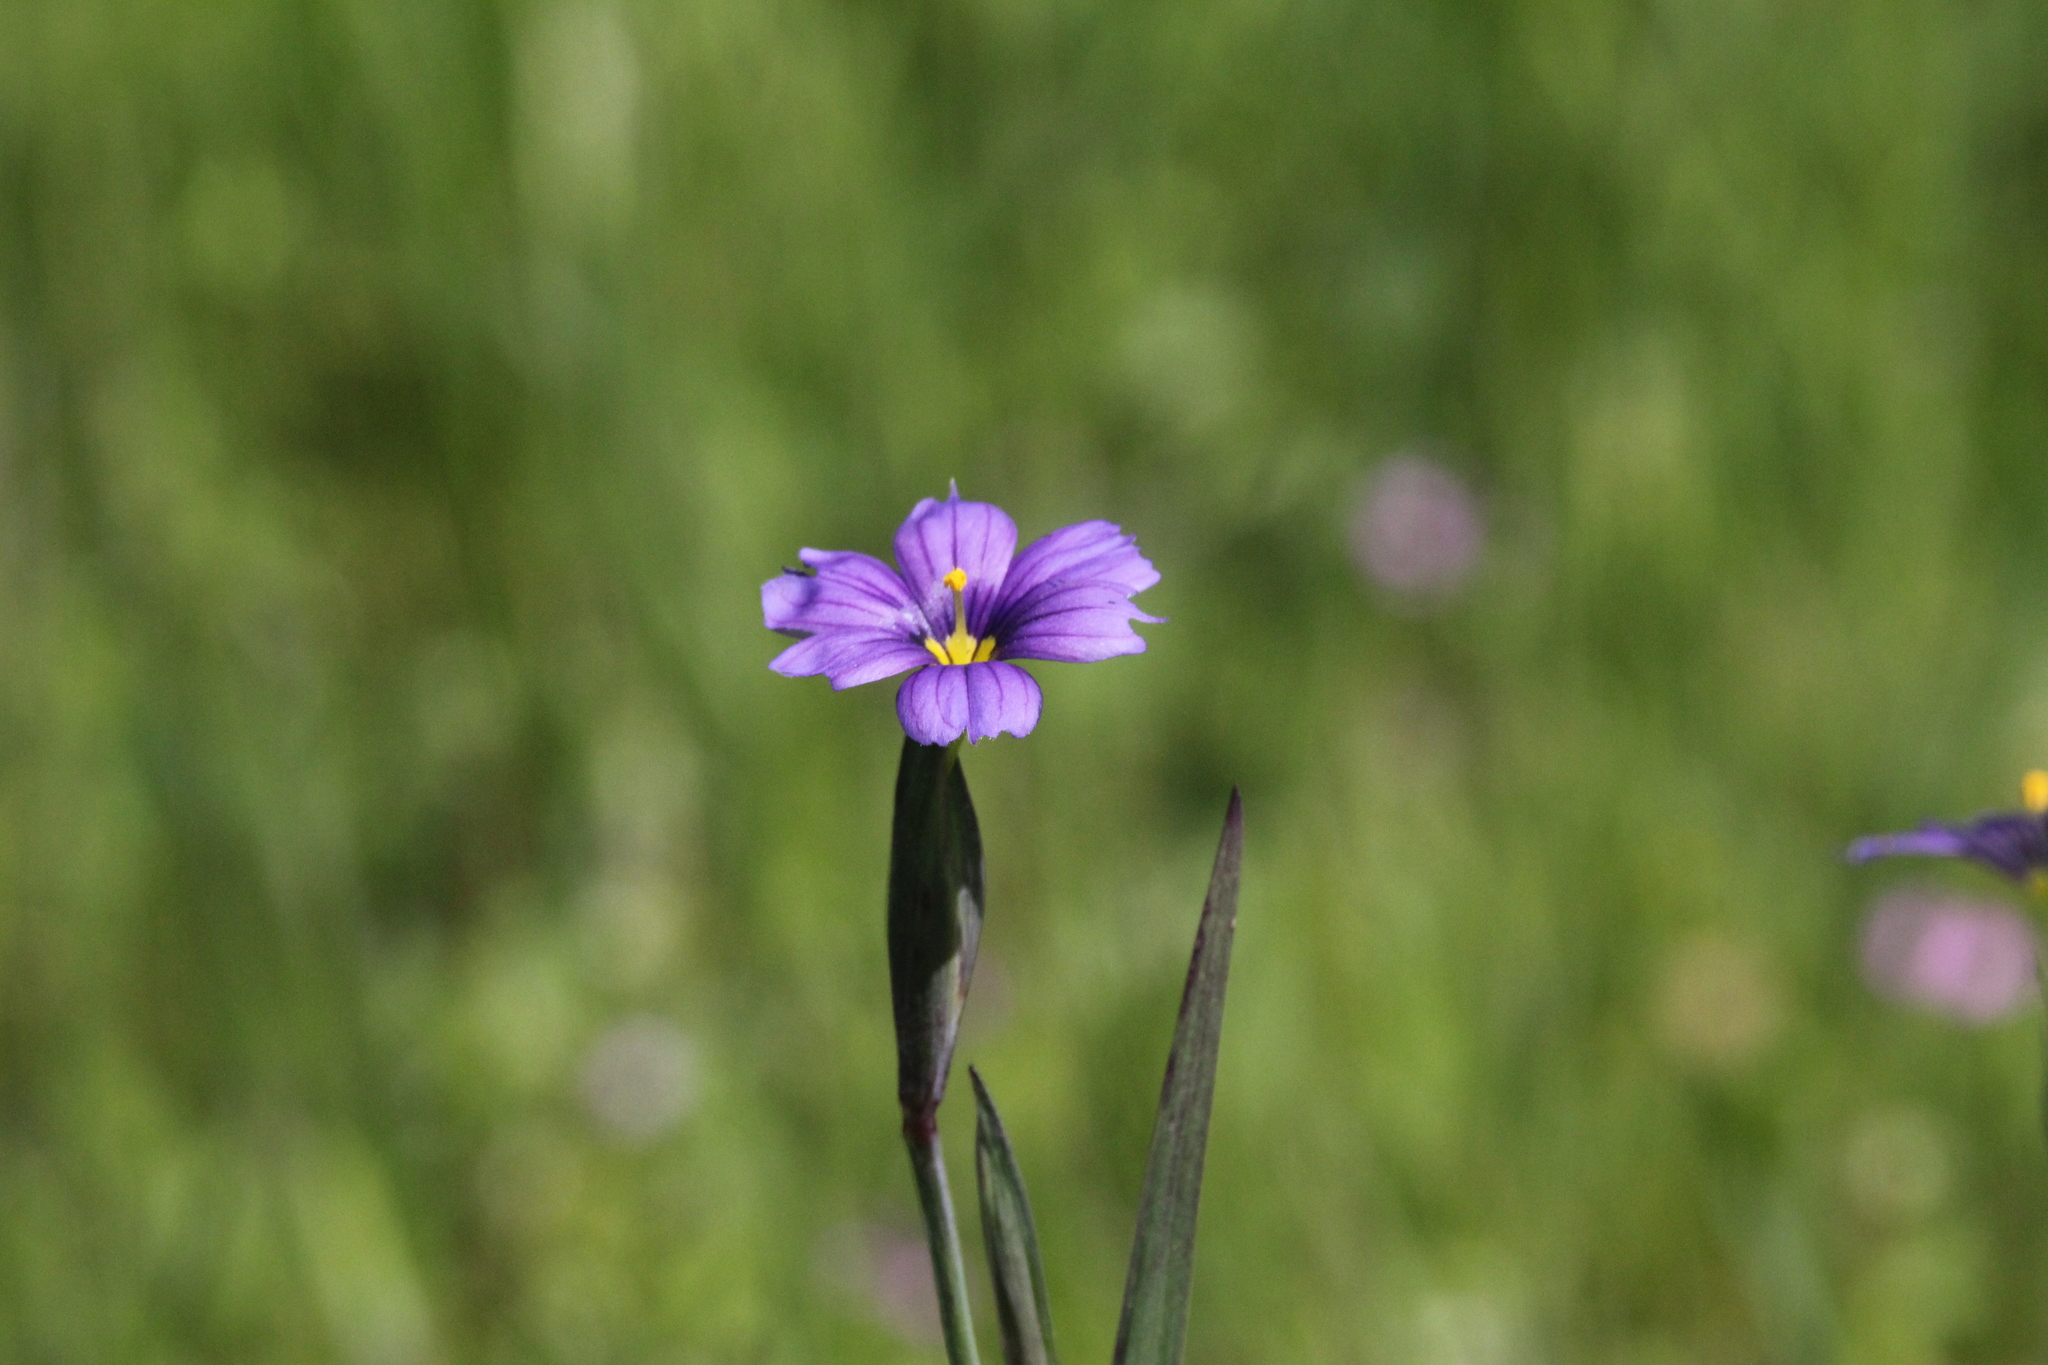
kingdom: Plantae
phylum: Tracheophyta
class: Liliopsida
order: Asparagales
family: Iridaceae
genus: Sisyrinchium
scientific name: Sisyrinchium bellum
